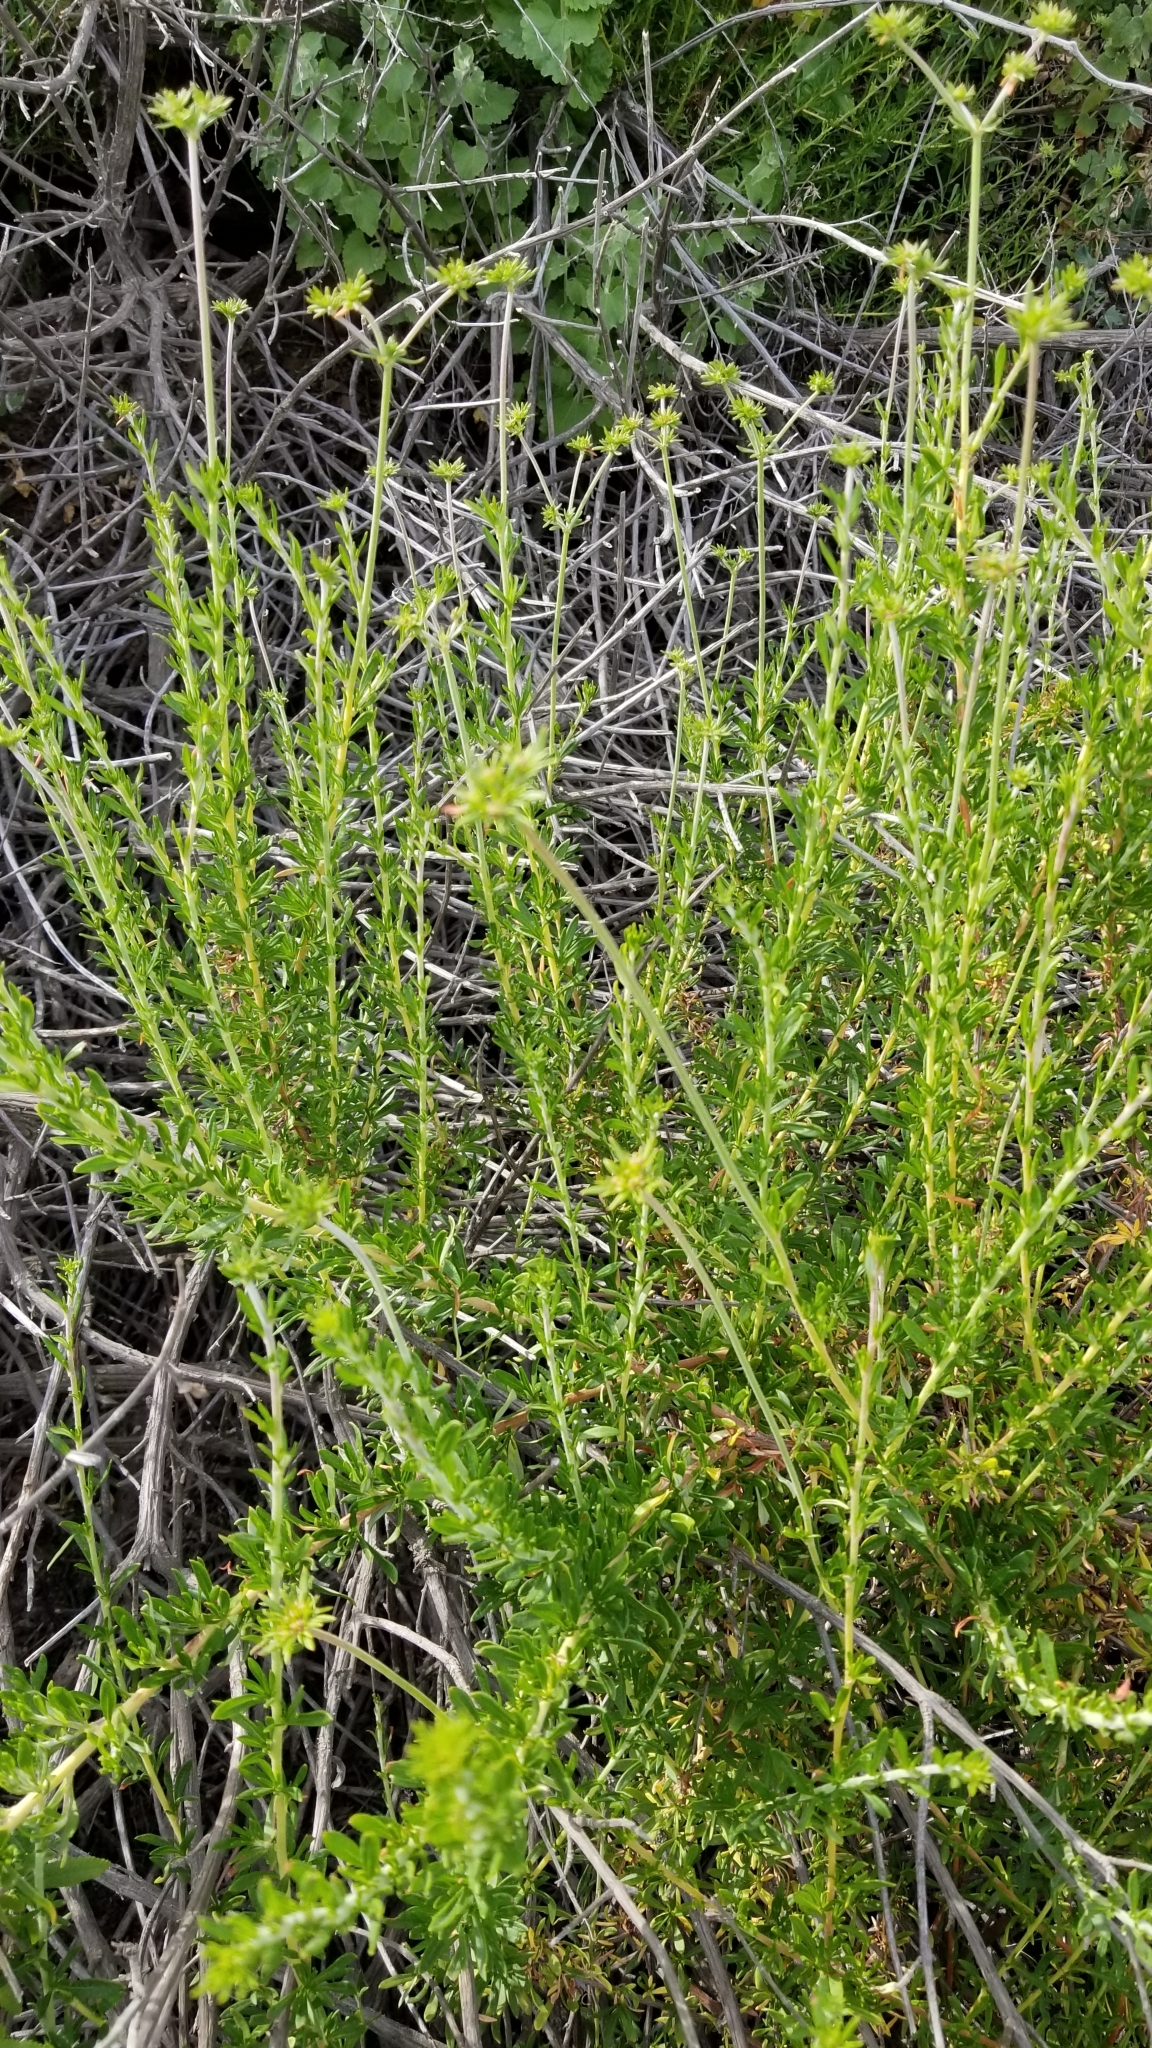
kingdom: Plantae
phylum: Tracheophyta
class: Magnoliopsida
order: Caryophyllales
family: Polygonaceae
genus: Eriogonum
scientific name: Eriogonum fasciculatum
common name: California wild buckwheat
